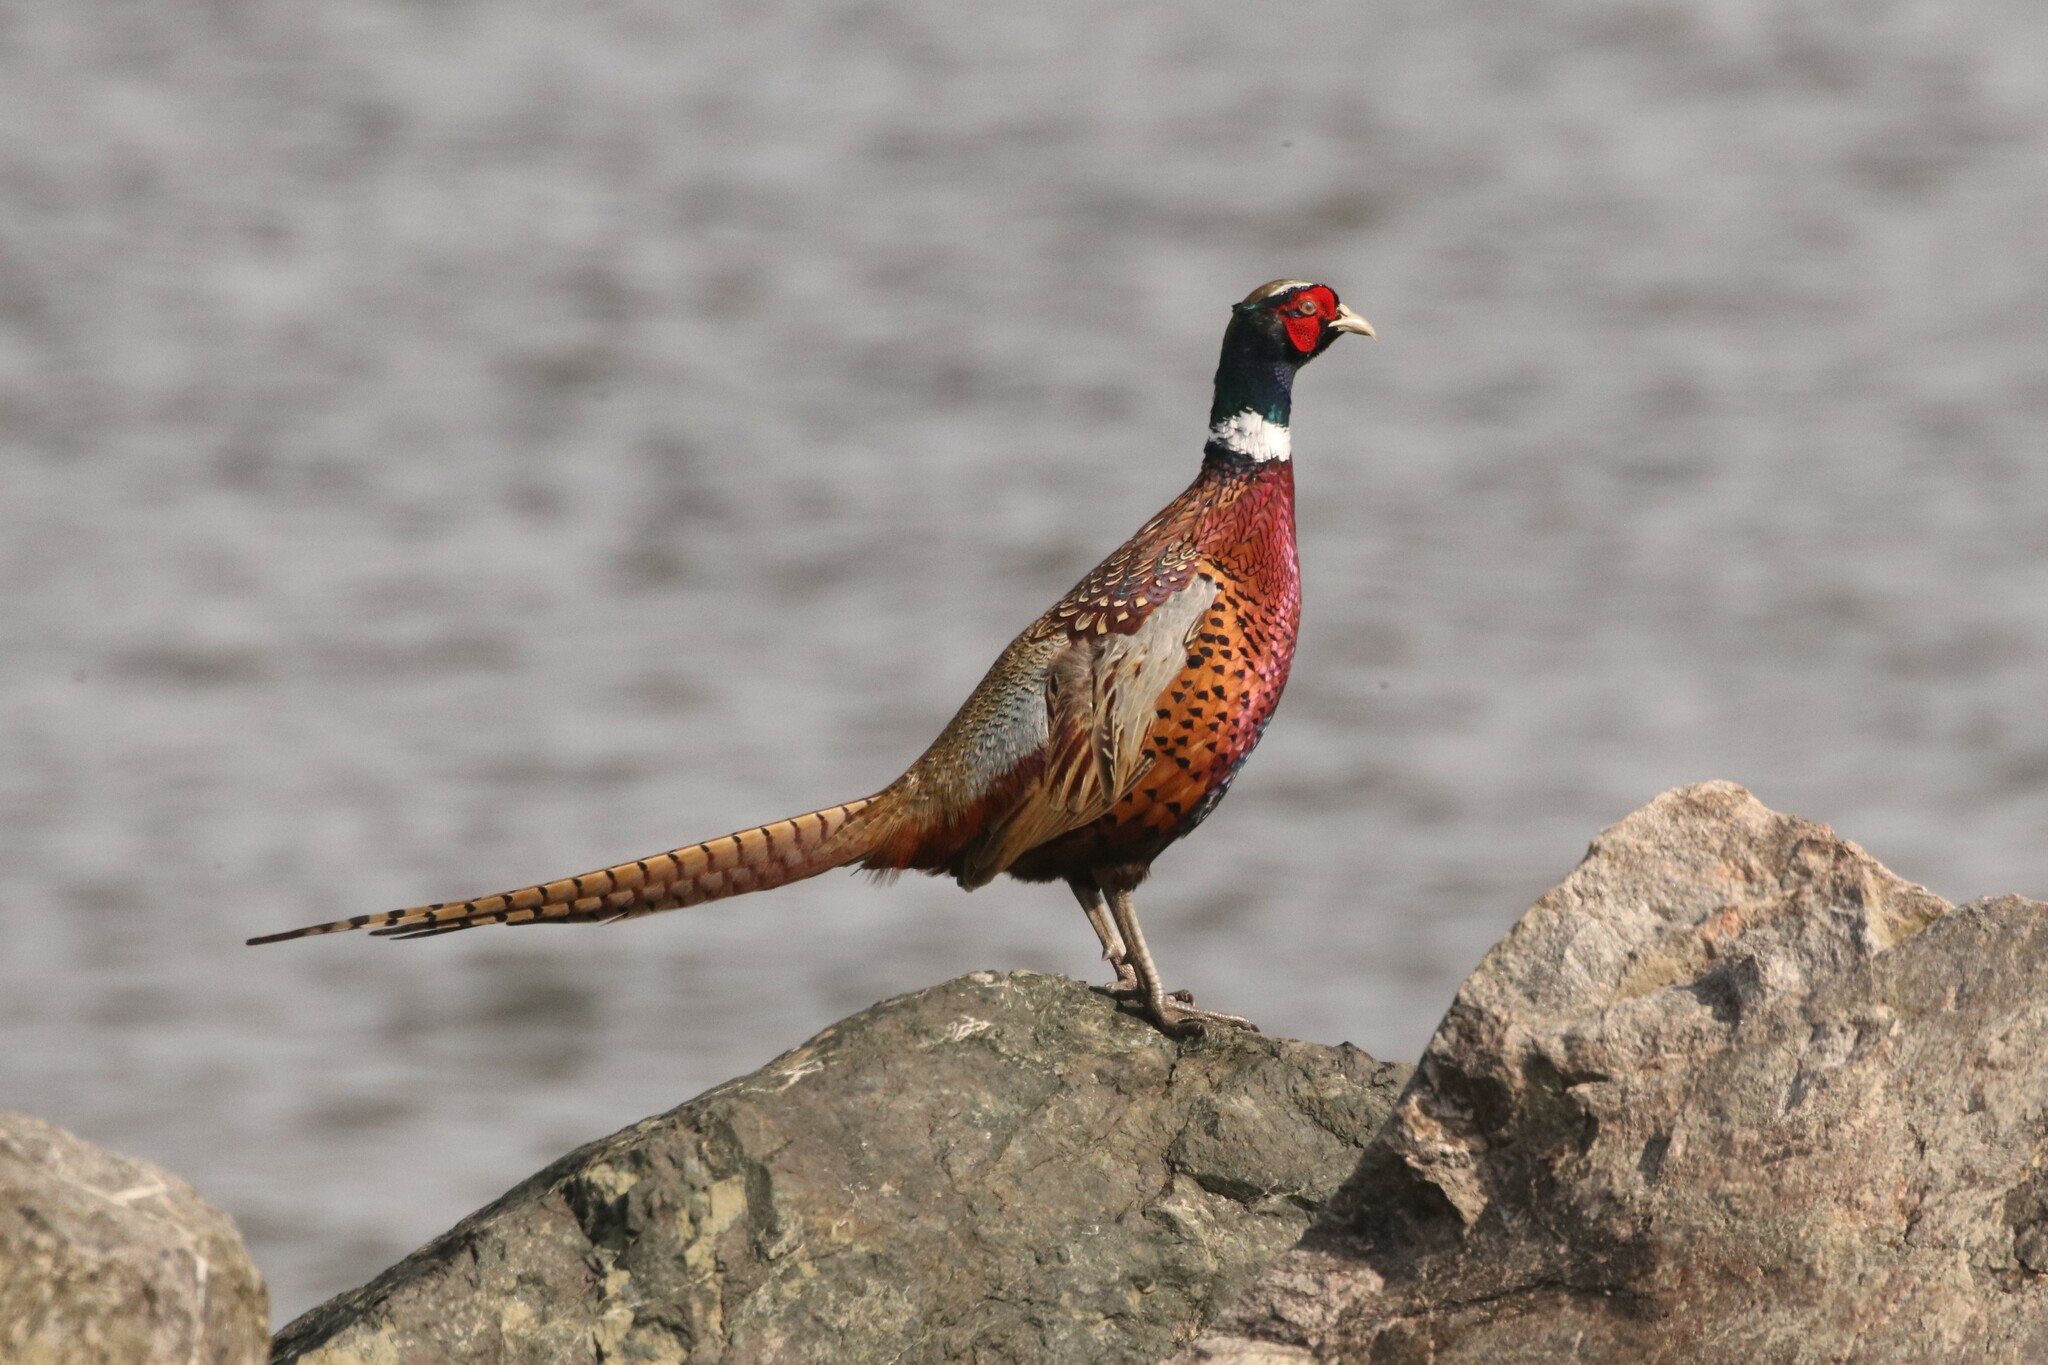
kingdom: Animalia
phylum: Chordata
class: Aves
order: Galliformes
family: Phasianidae
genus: Phasianus
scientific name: Phasianus colchicus
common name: Common pheasant
